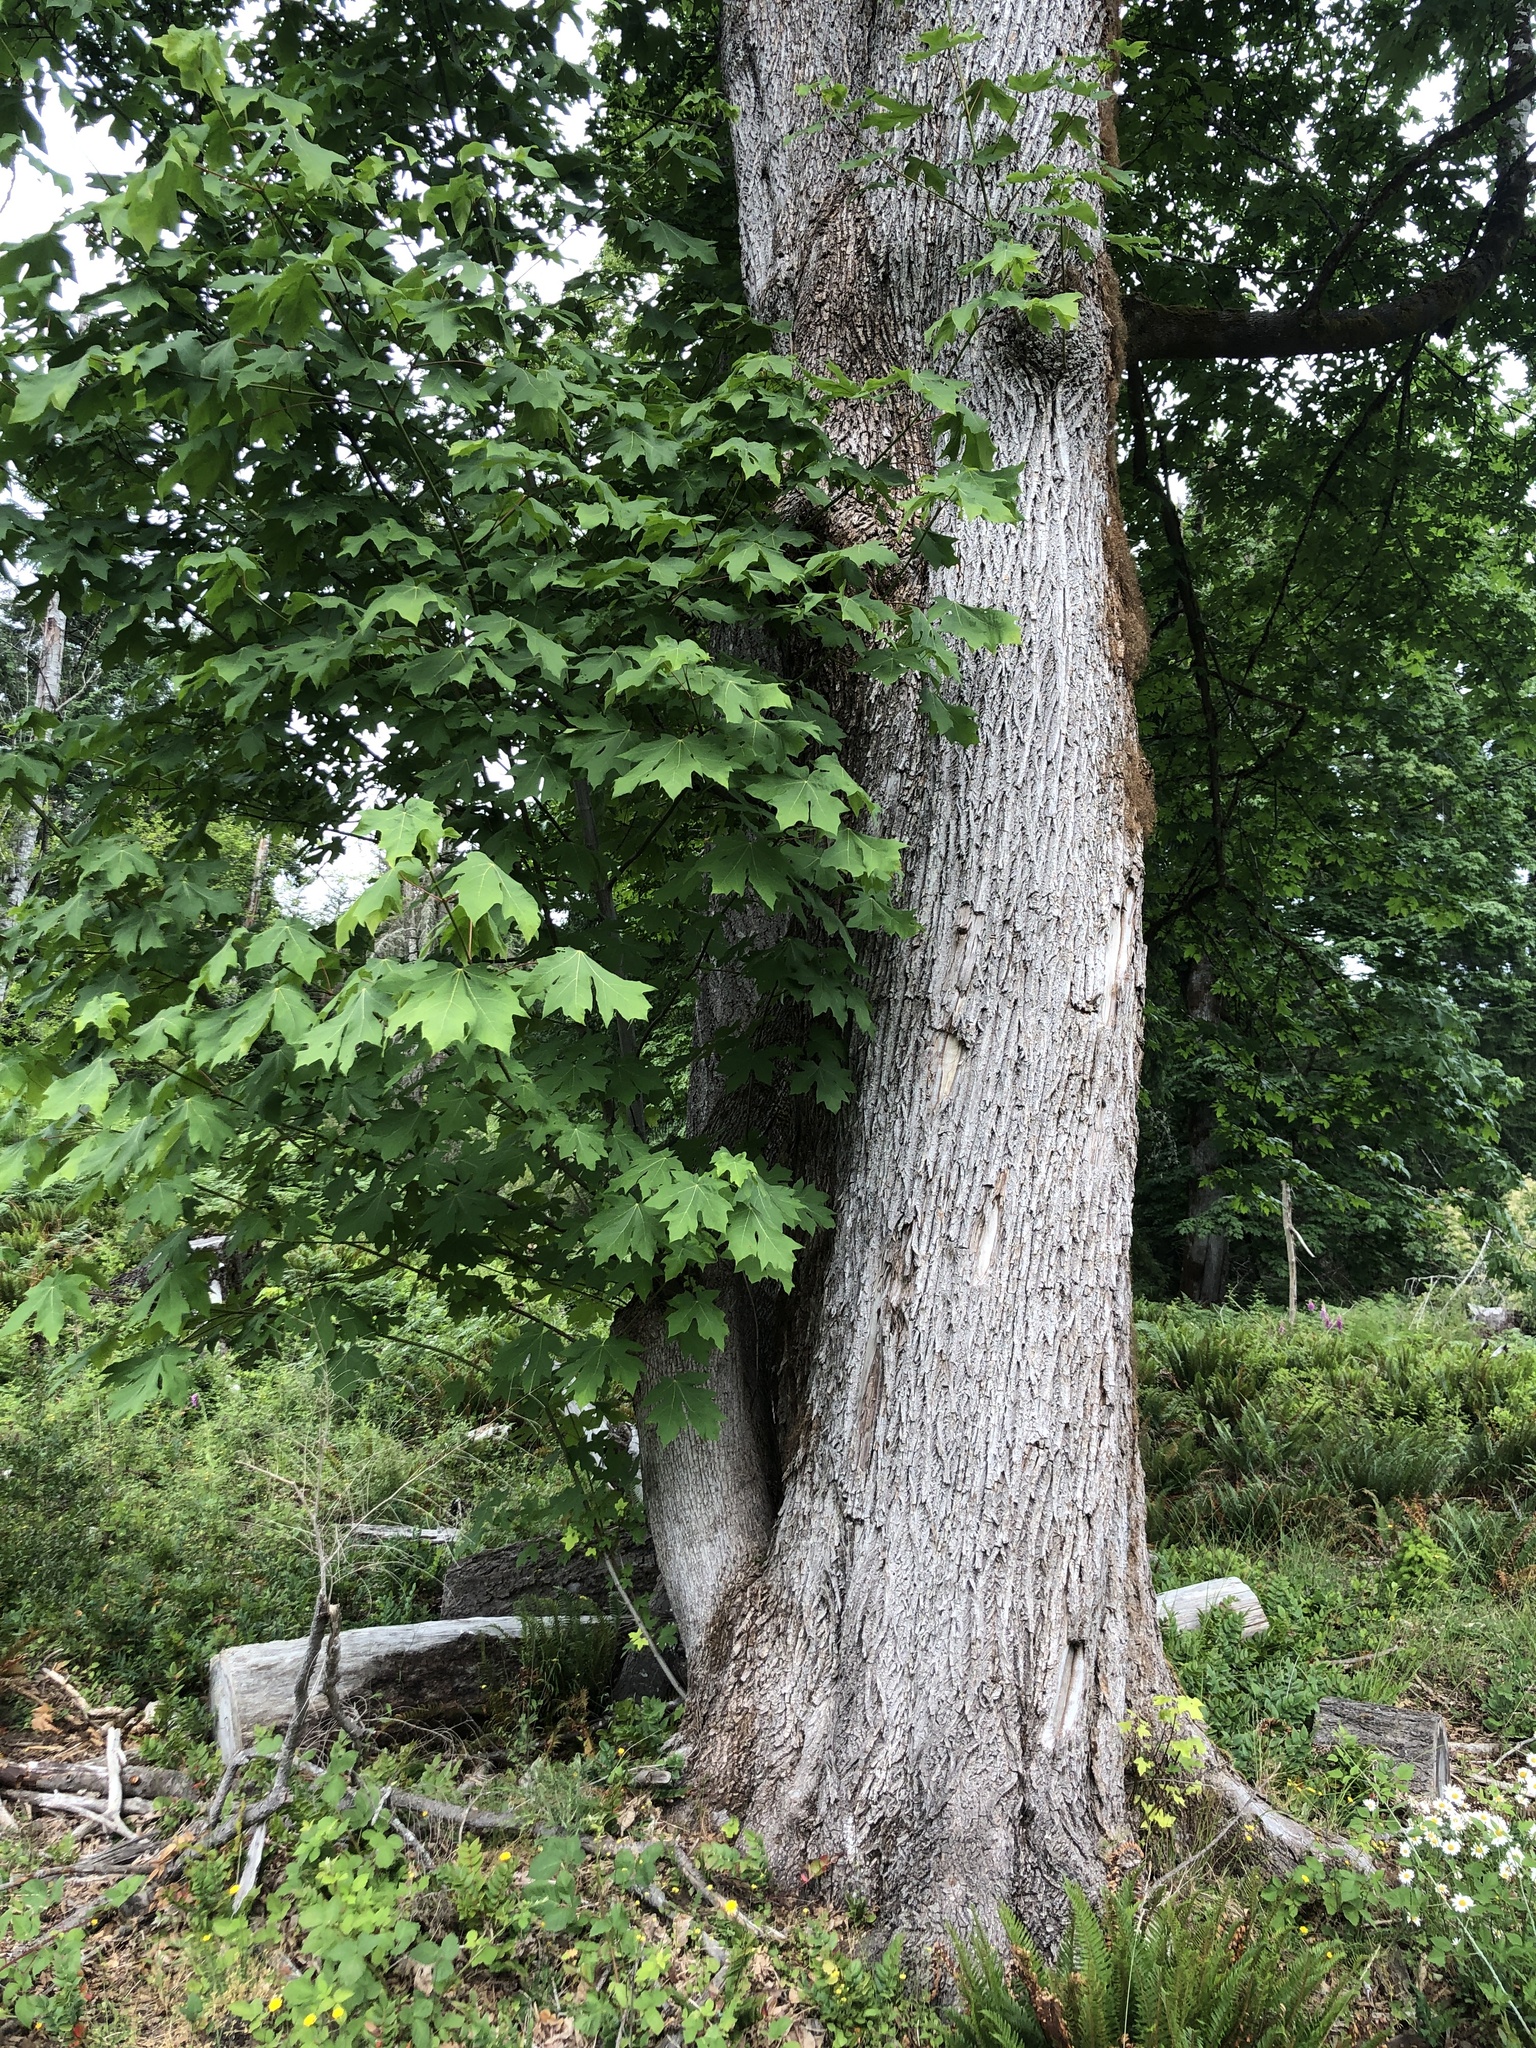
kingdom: Plantae
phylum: Tracheophyta
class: Magnoliopsida
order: Sapindales
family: Sapindaceae
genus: Acer
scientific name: Acer macrophyllum
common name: Oregon maple
